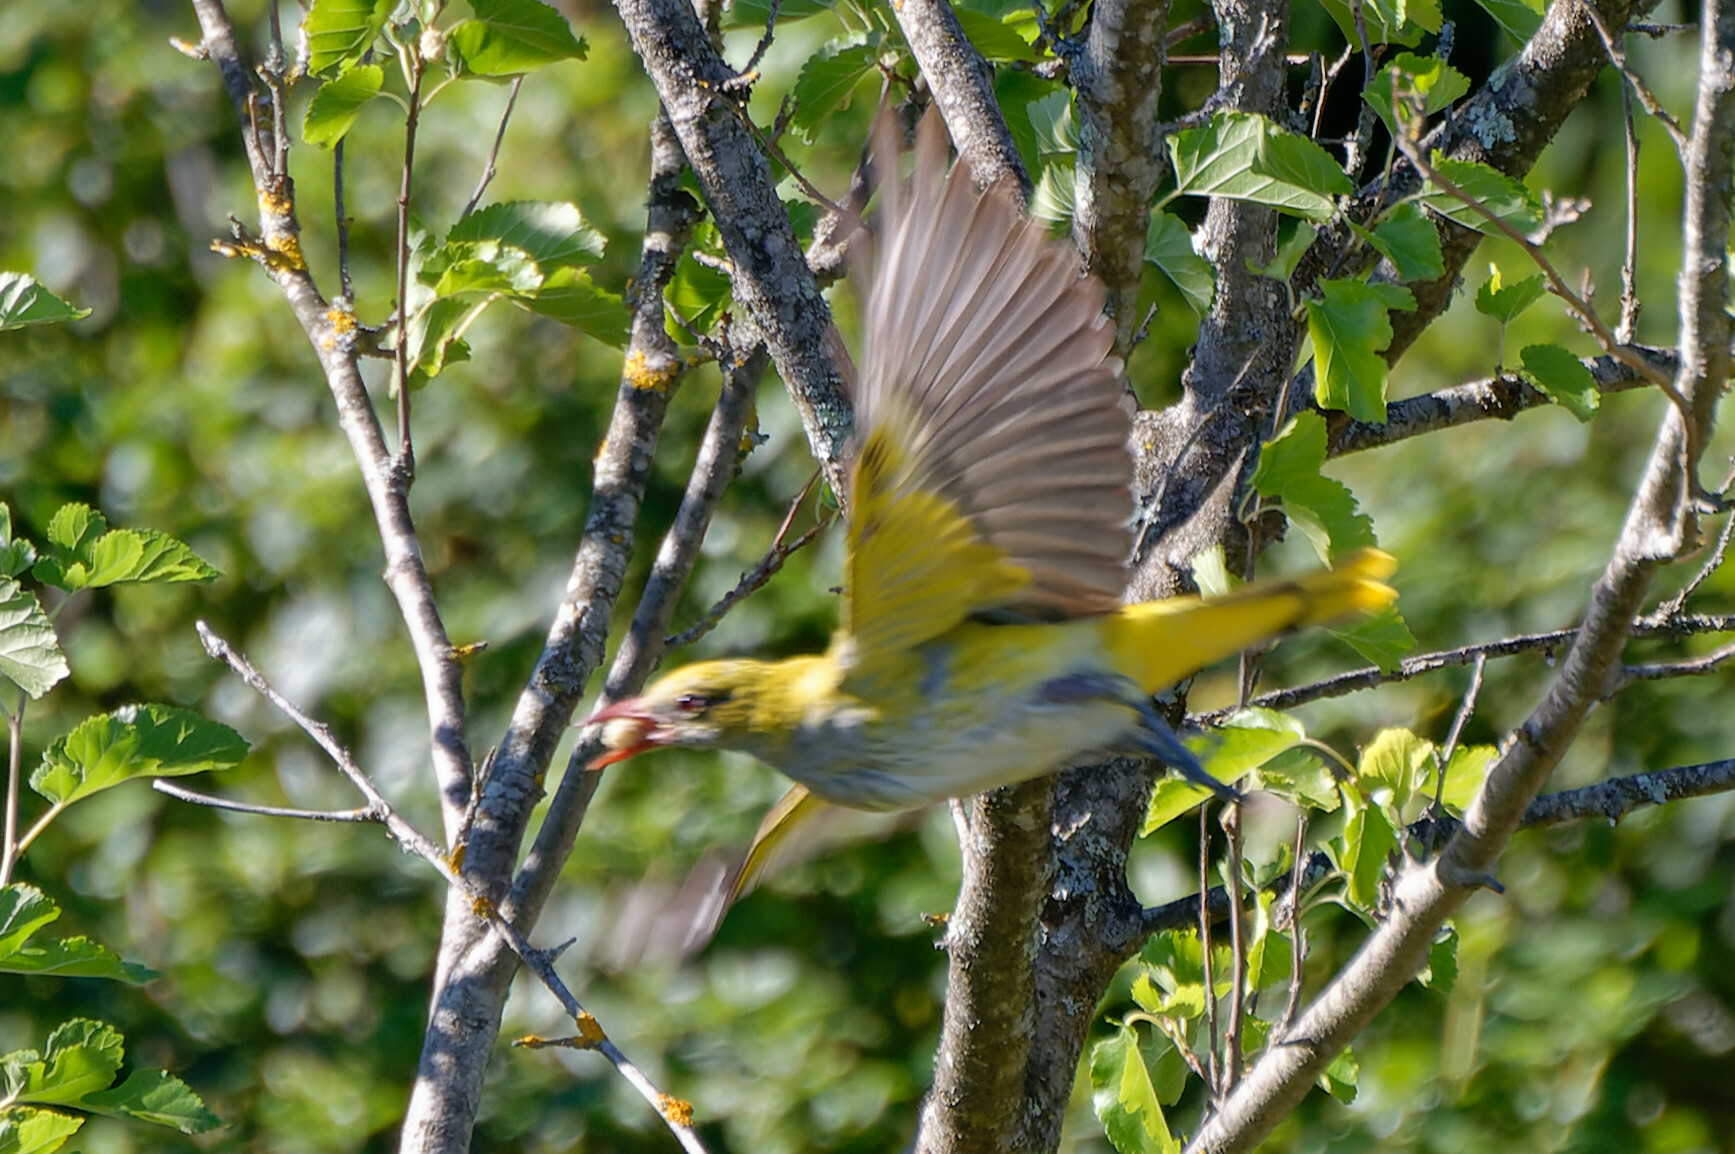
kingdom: Animalia
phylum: Chordata
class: Aves
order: Passeriformes
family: Oriolidae
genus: Oriolus
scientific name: Oriolus oriolus
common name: Eurasian golden oriole
